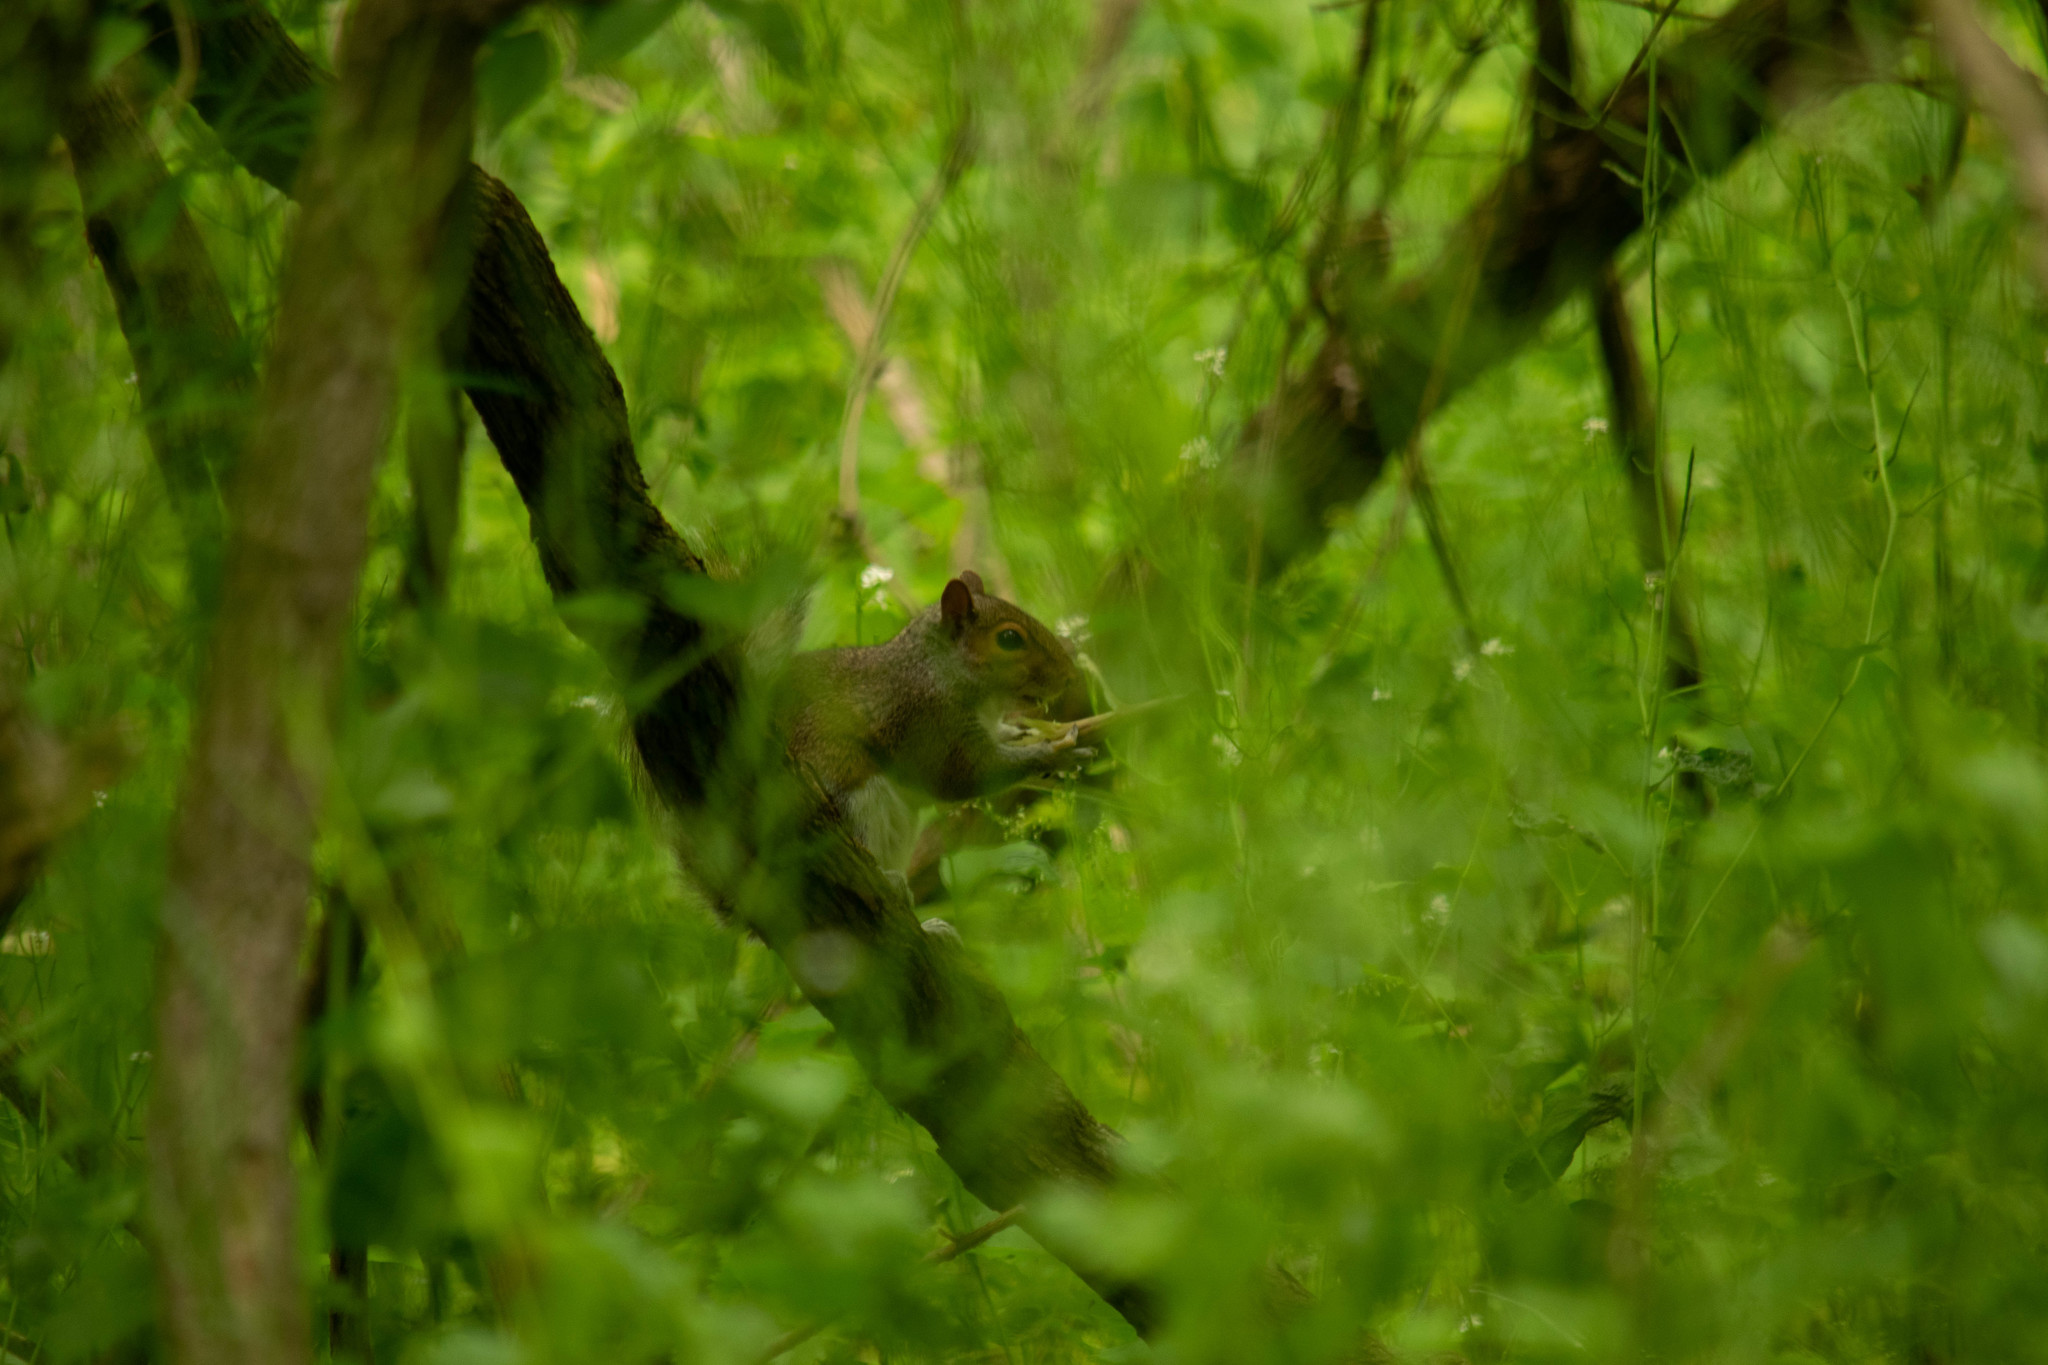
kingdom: Animalia
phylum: Chordata
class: Mammalia
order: Rodentia
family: Sciuridae
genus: Sciurus
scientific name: Sciurus carolinensis
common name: Eastern gray squirrel
